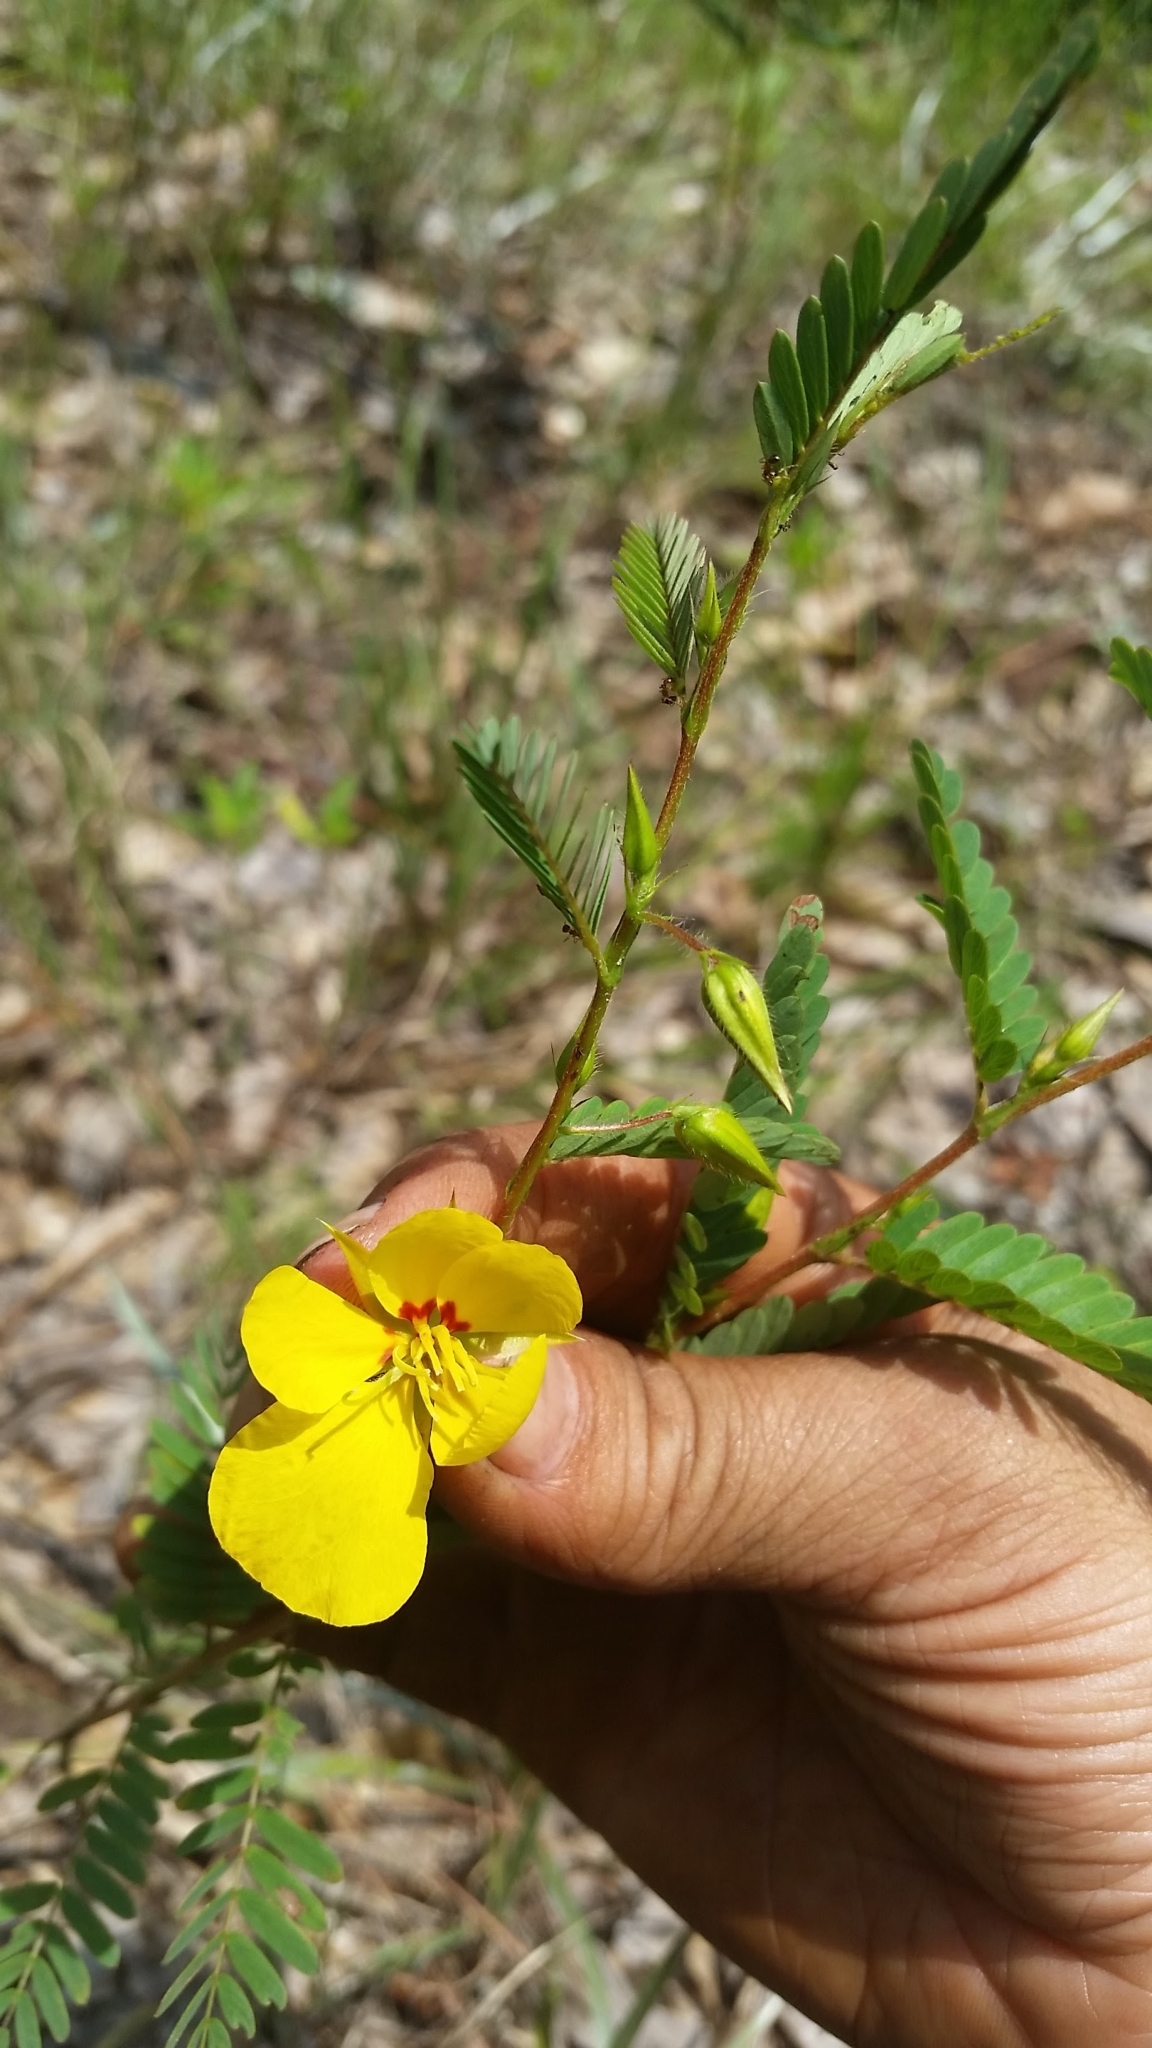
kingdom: Plantae
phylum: Tracheophyta
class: Magnoliopsida
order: Fabales
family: Fabaceae
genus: Chamaecrista
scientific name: Chamaecrista fasciculata
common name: Golden cassia
